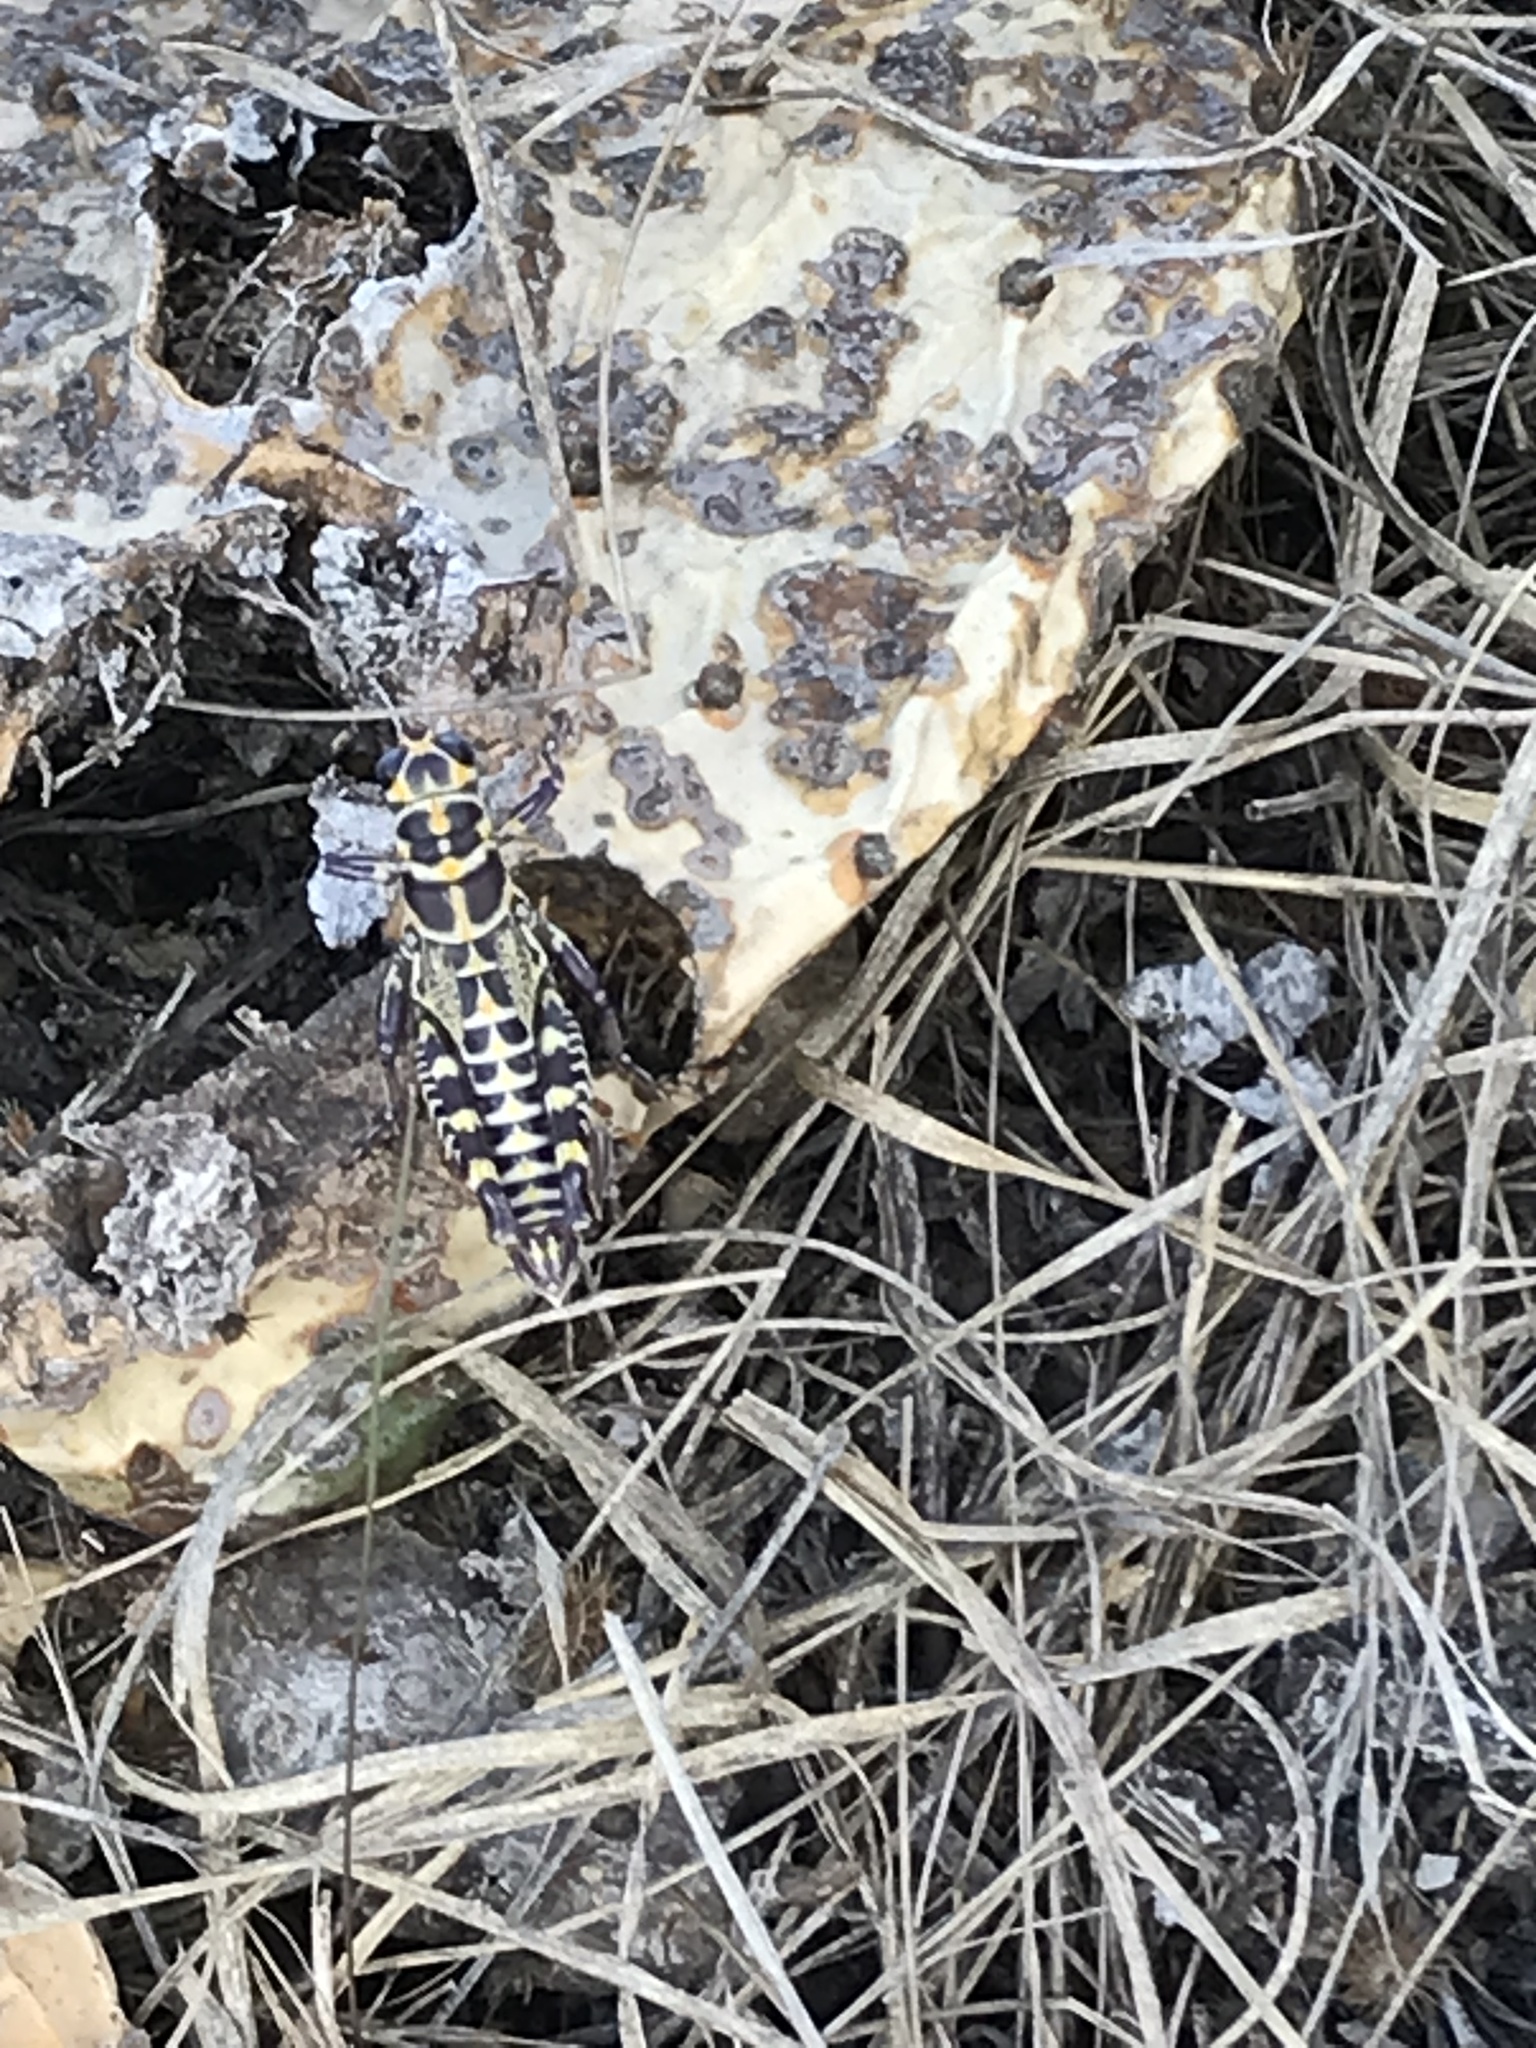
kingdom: Animalia
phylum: Arthropoda
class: Insecta
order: Orthoptera
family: Acrididae
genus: Dactylotum
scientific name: Dactylotum bicolor
